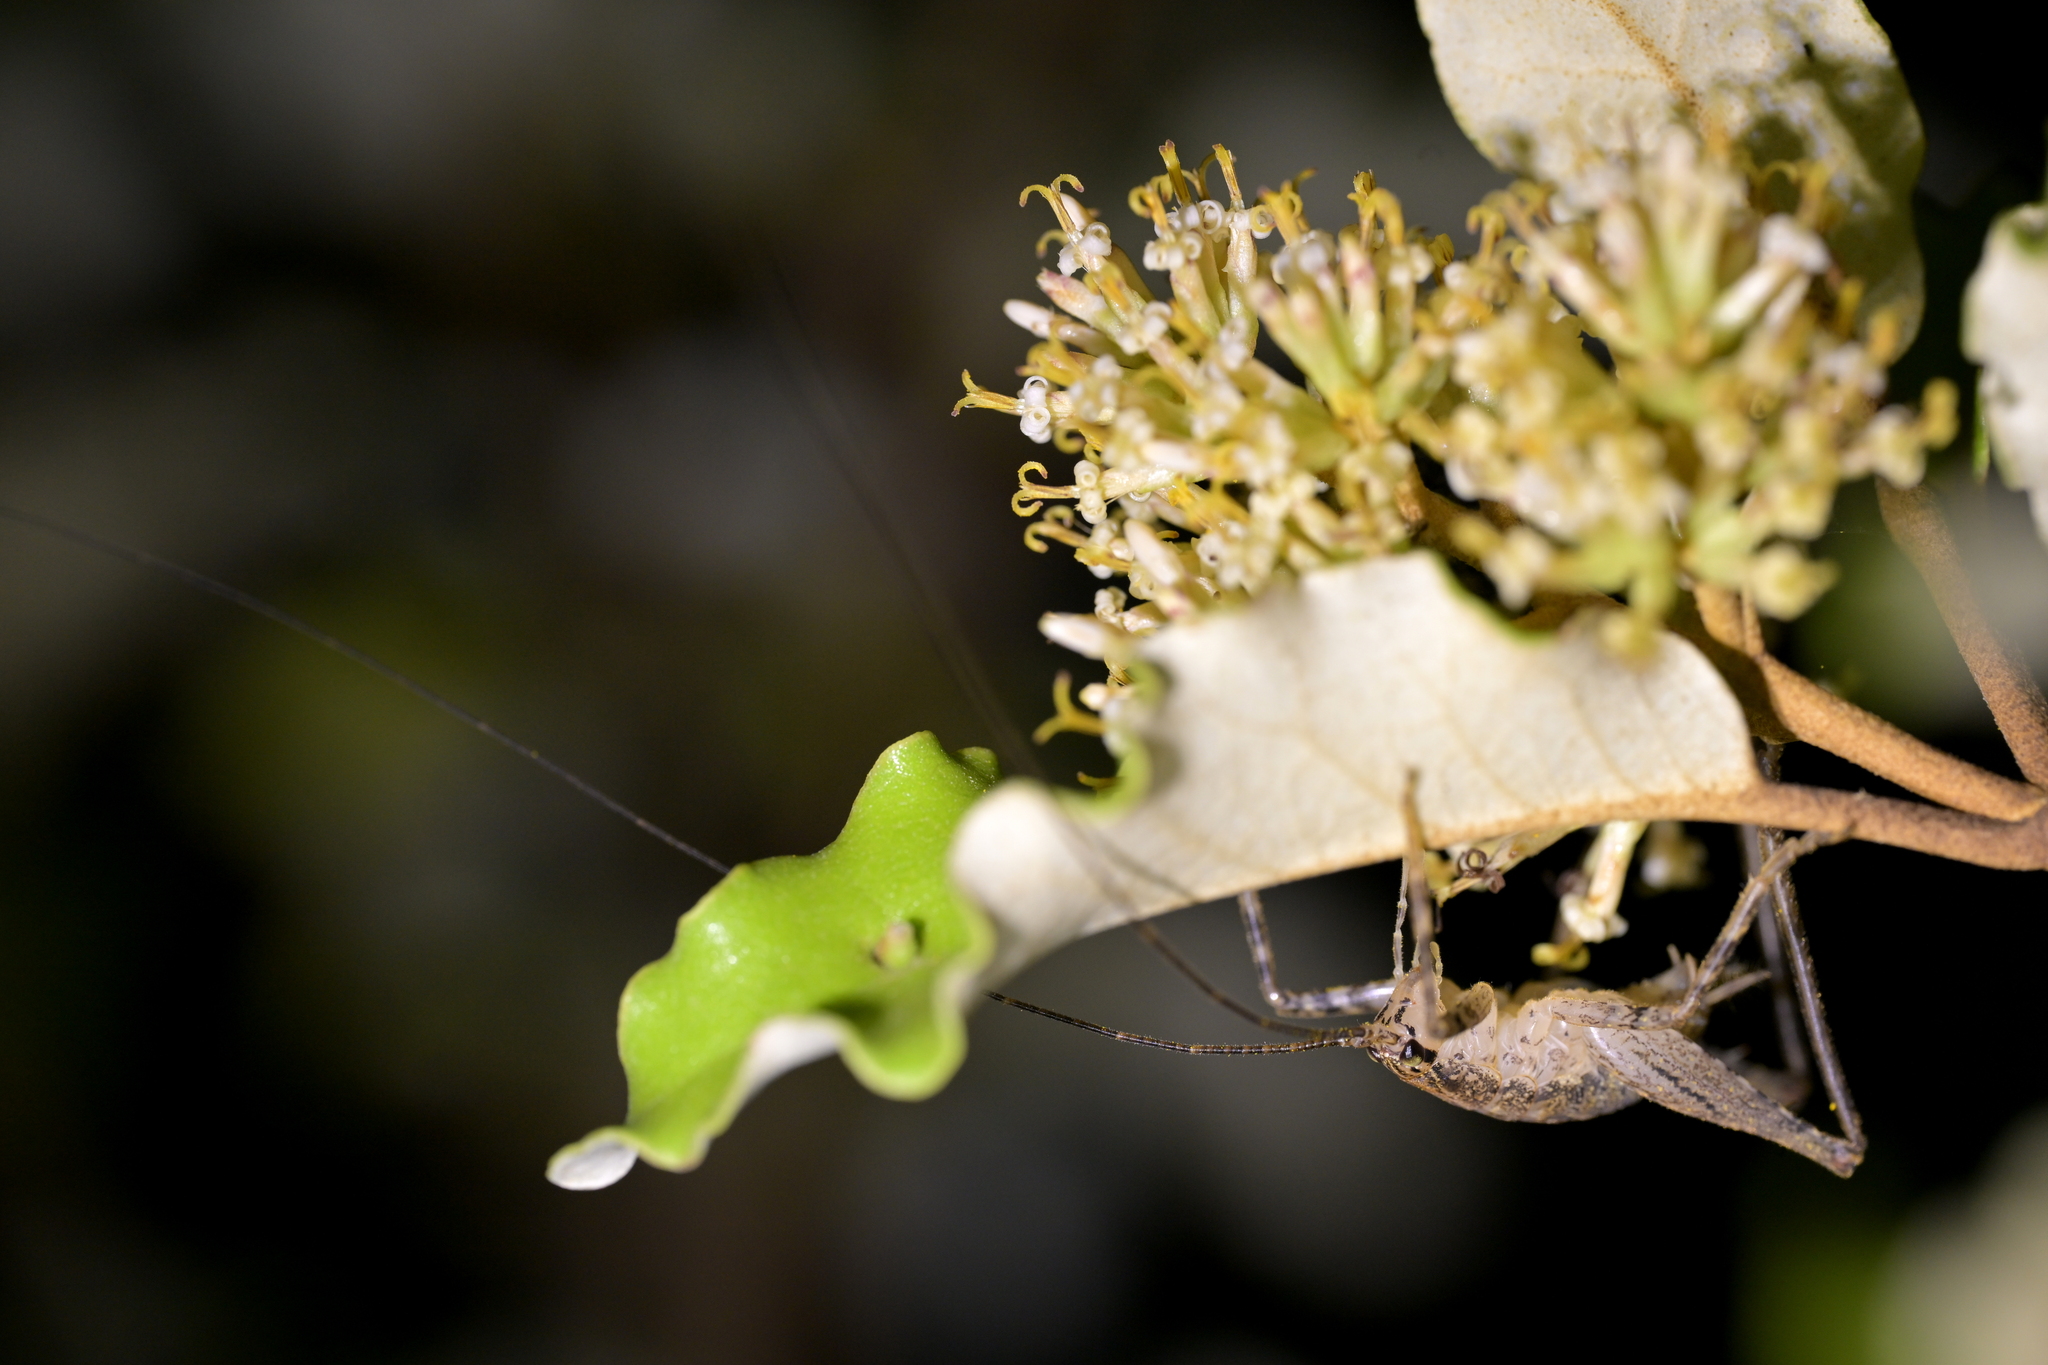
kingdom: Animalia
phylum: Arthropoda
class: Insecta
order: Orthoptera
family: Rhaphidophoridae
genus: Isoplectron
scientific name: Isoplectron armatum
